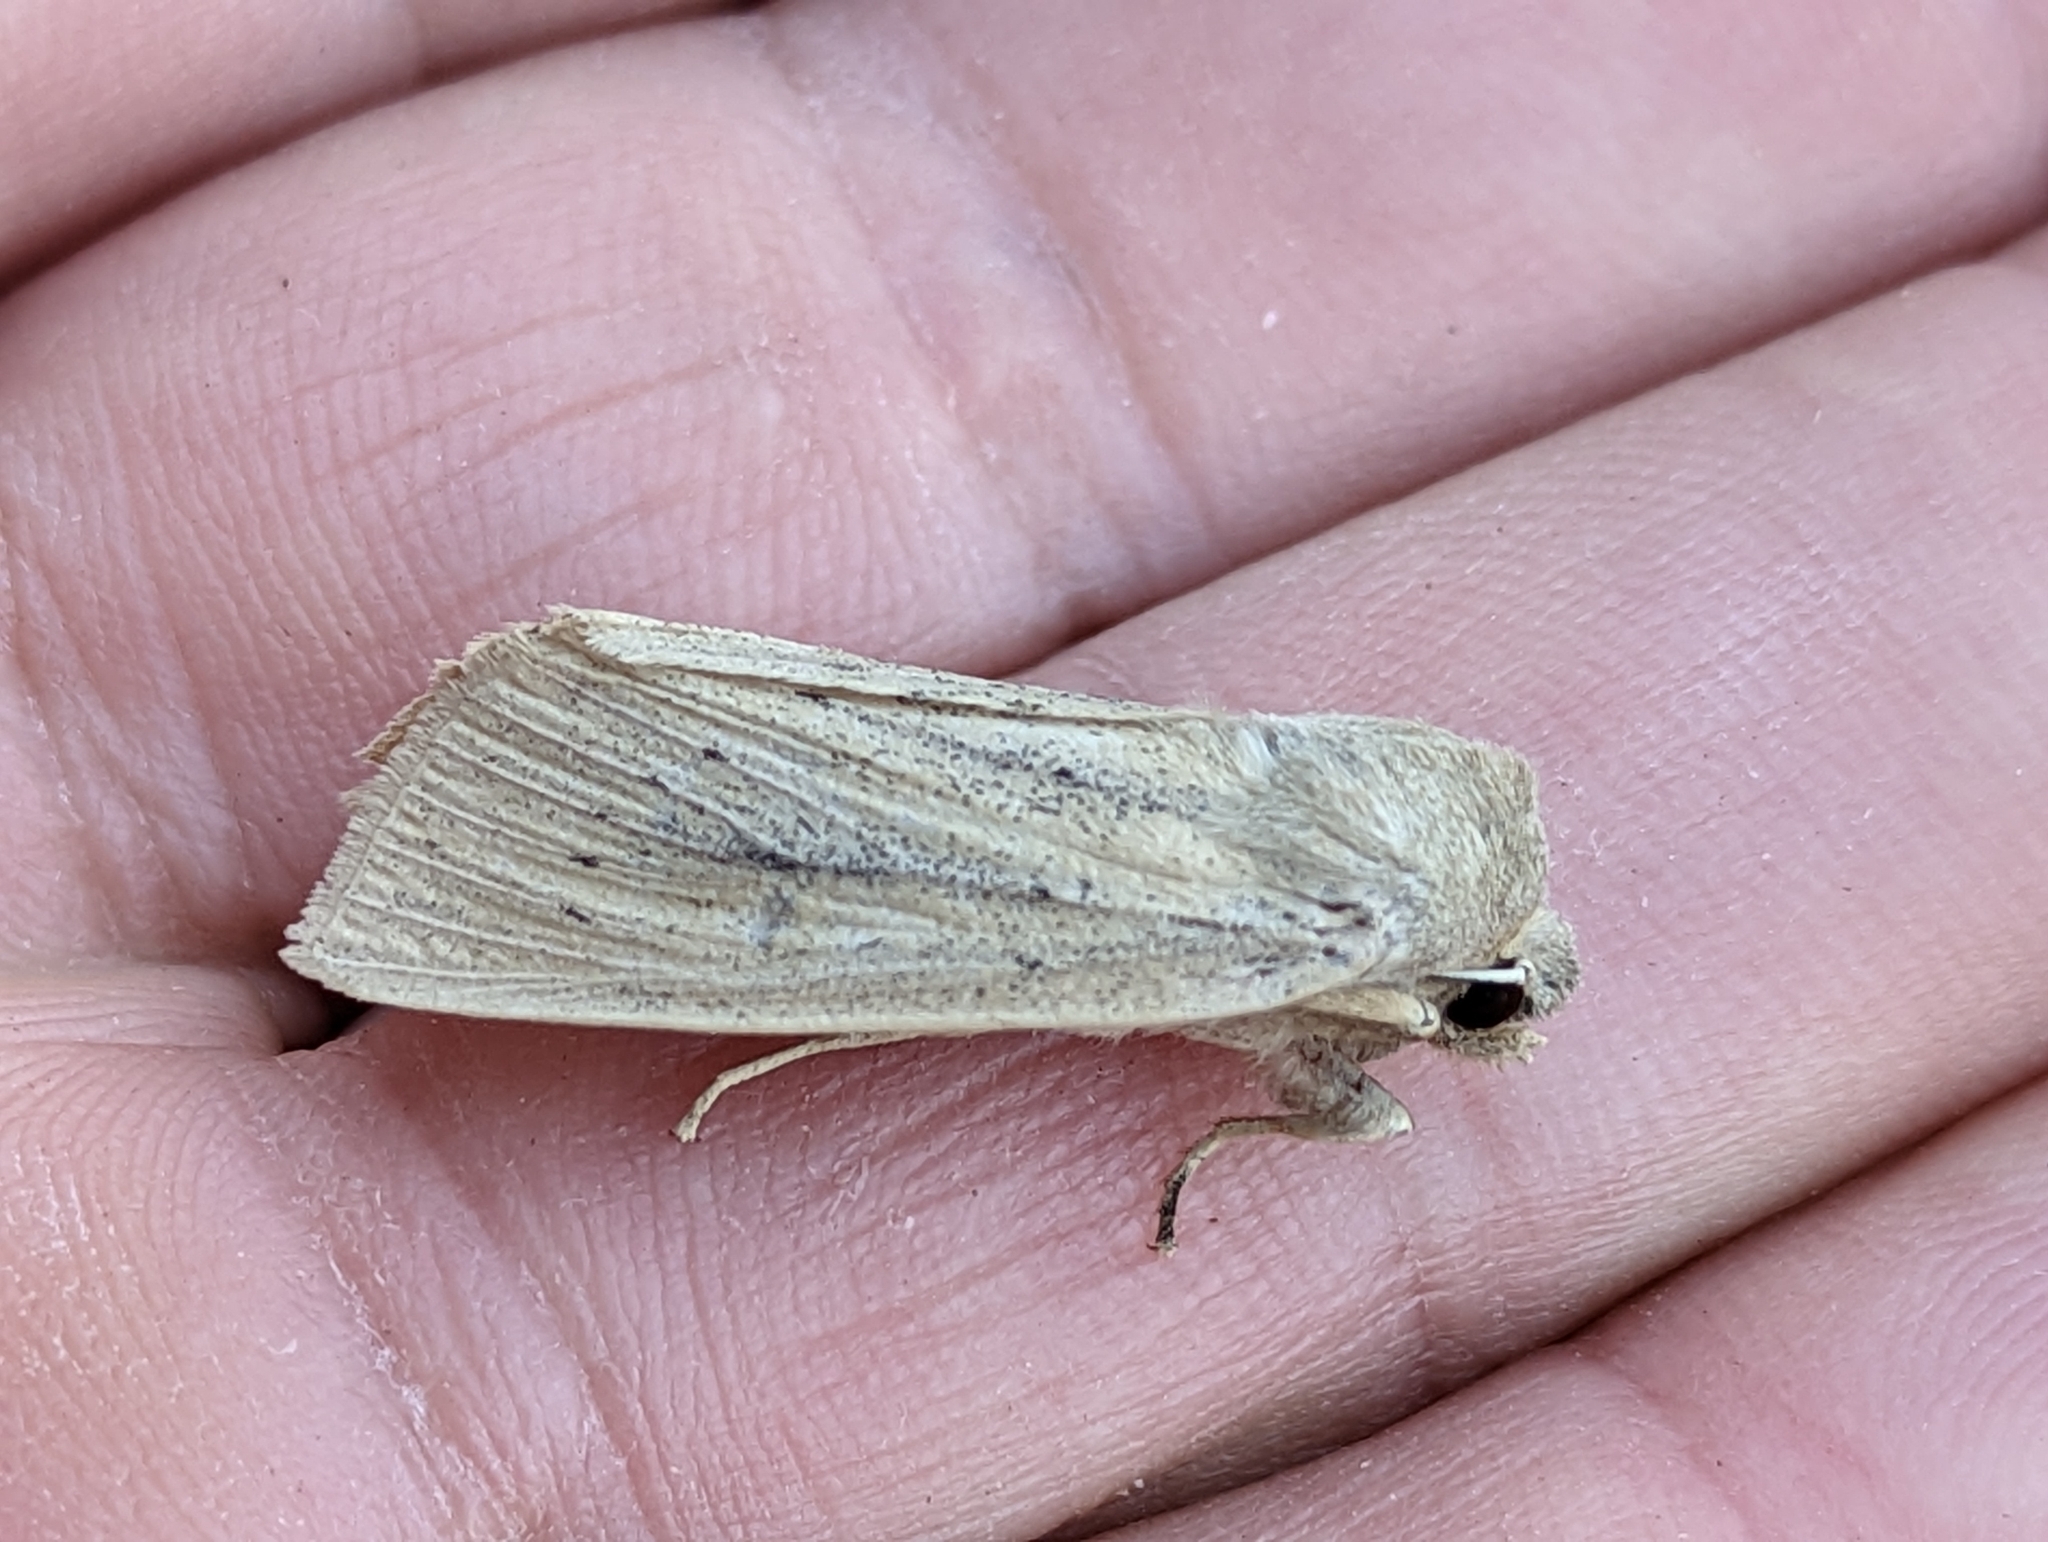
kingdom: Animalia
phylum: Arthropoda
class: Insecta
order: Lepidoptera
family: Noctuidae
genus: Rhizedra
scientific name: Rhizedra lutosa
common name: Large wainscot
